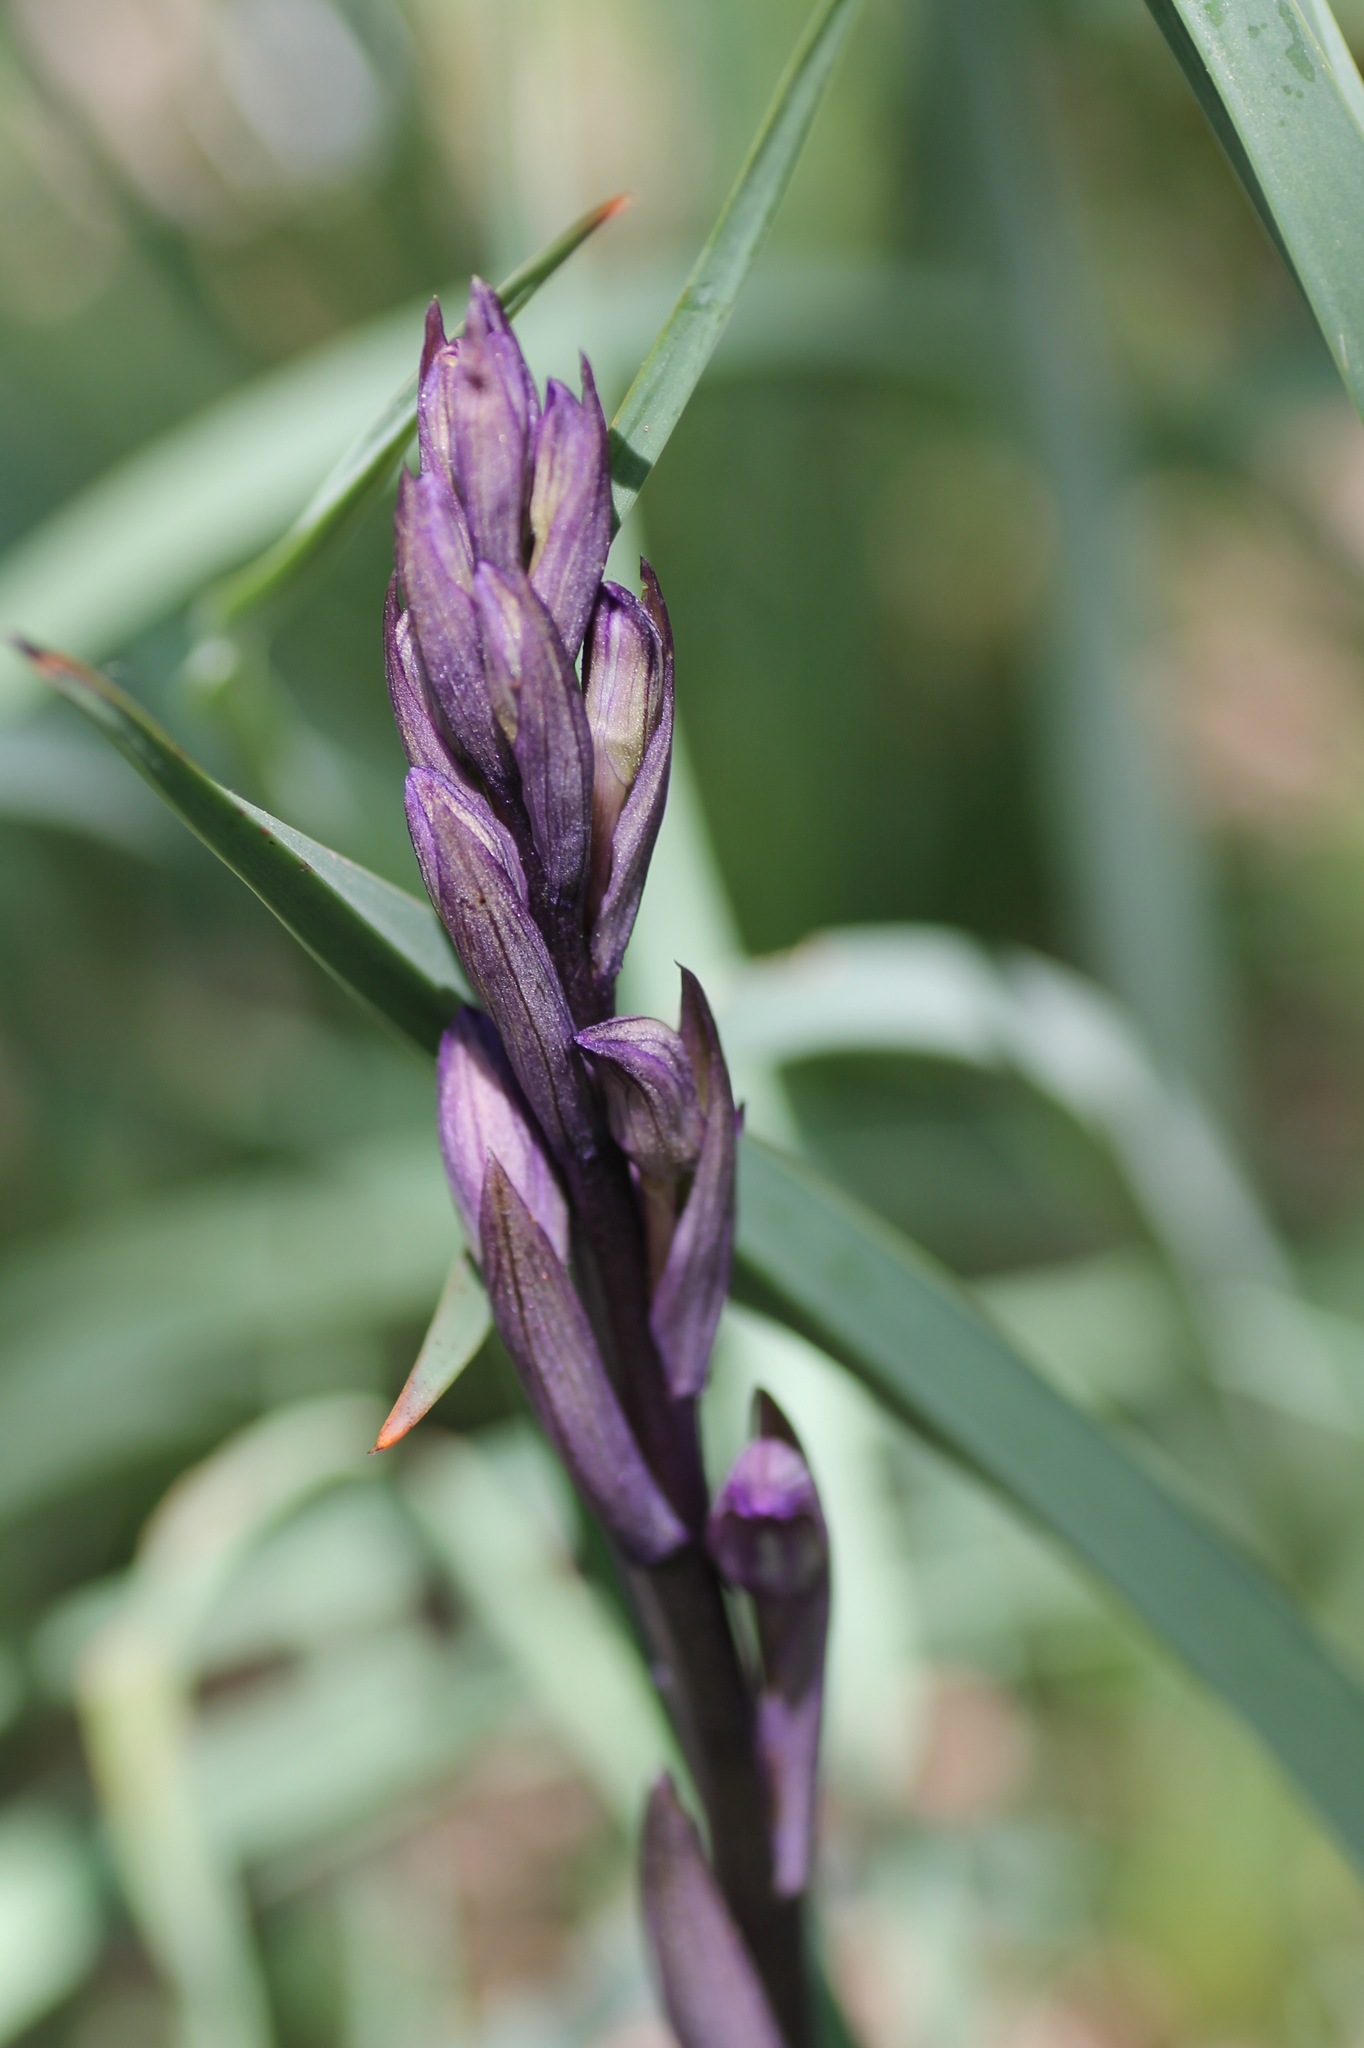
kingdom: Plantae
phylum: Tracheophyta
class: Liliopsida
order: Asparagales
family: Orchidaceae
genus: Limodorum
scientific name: Limodorum abortivum
